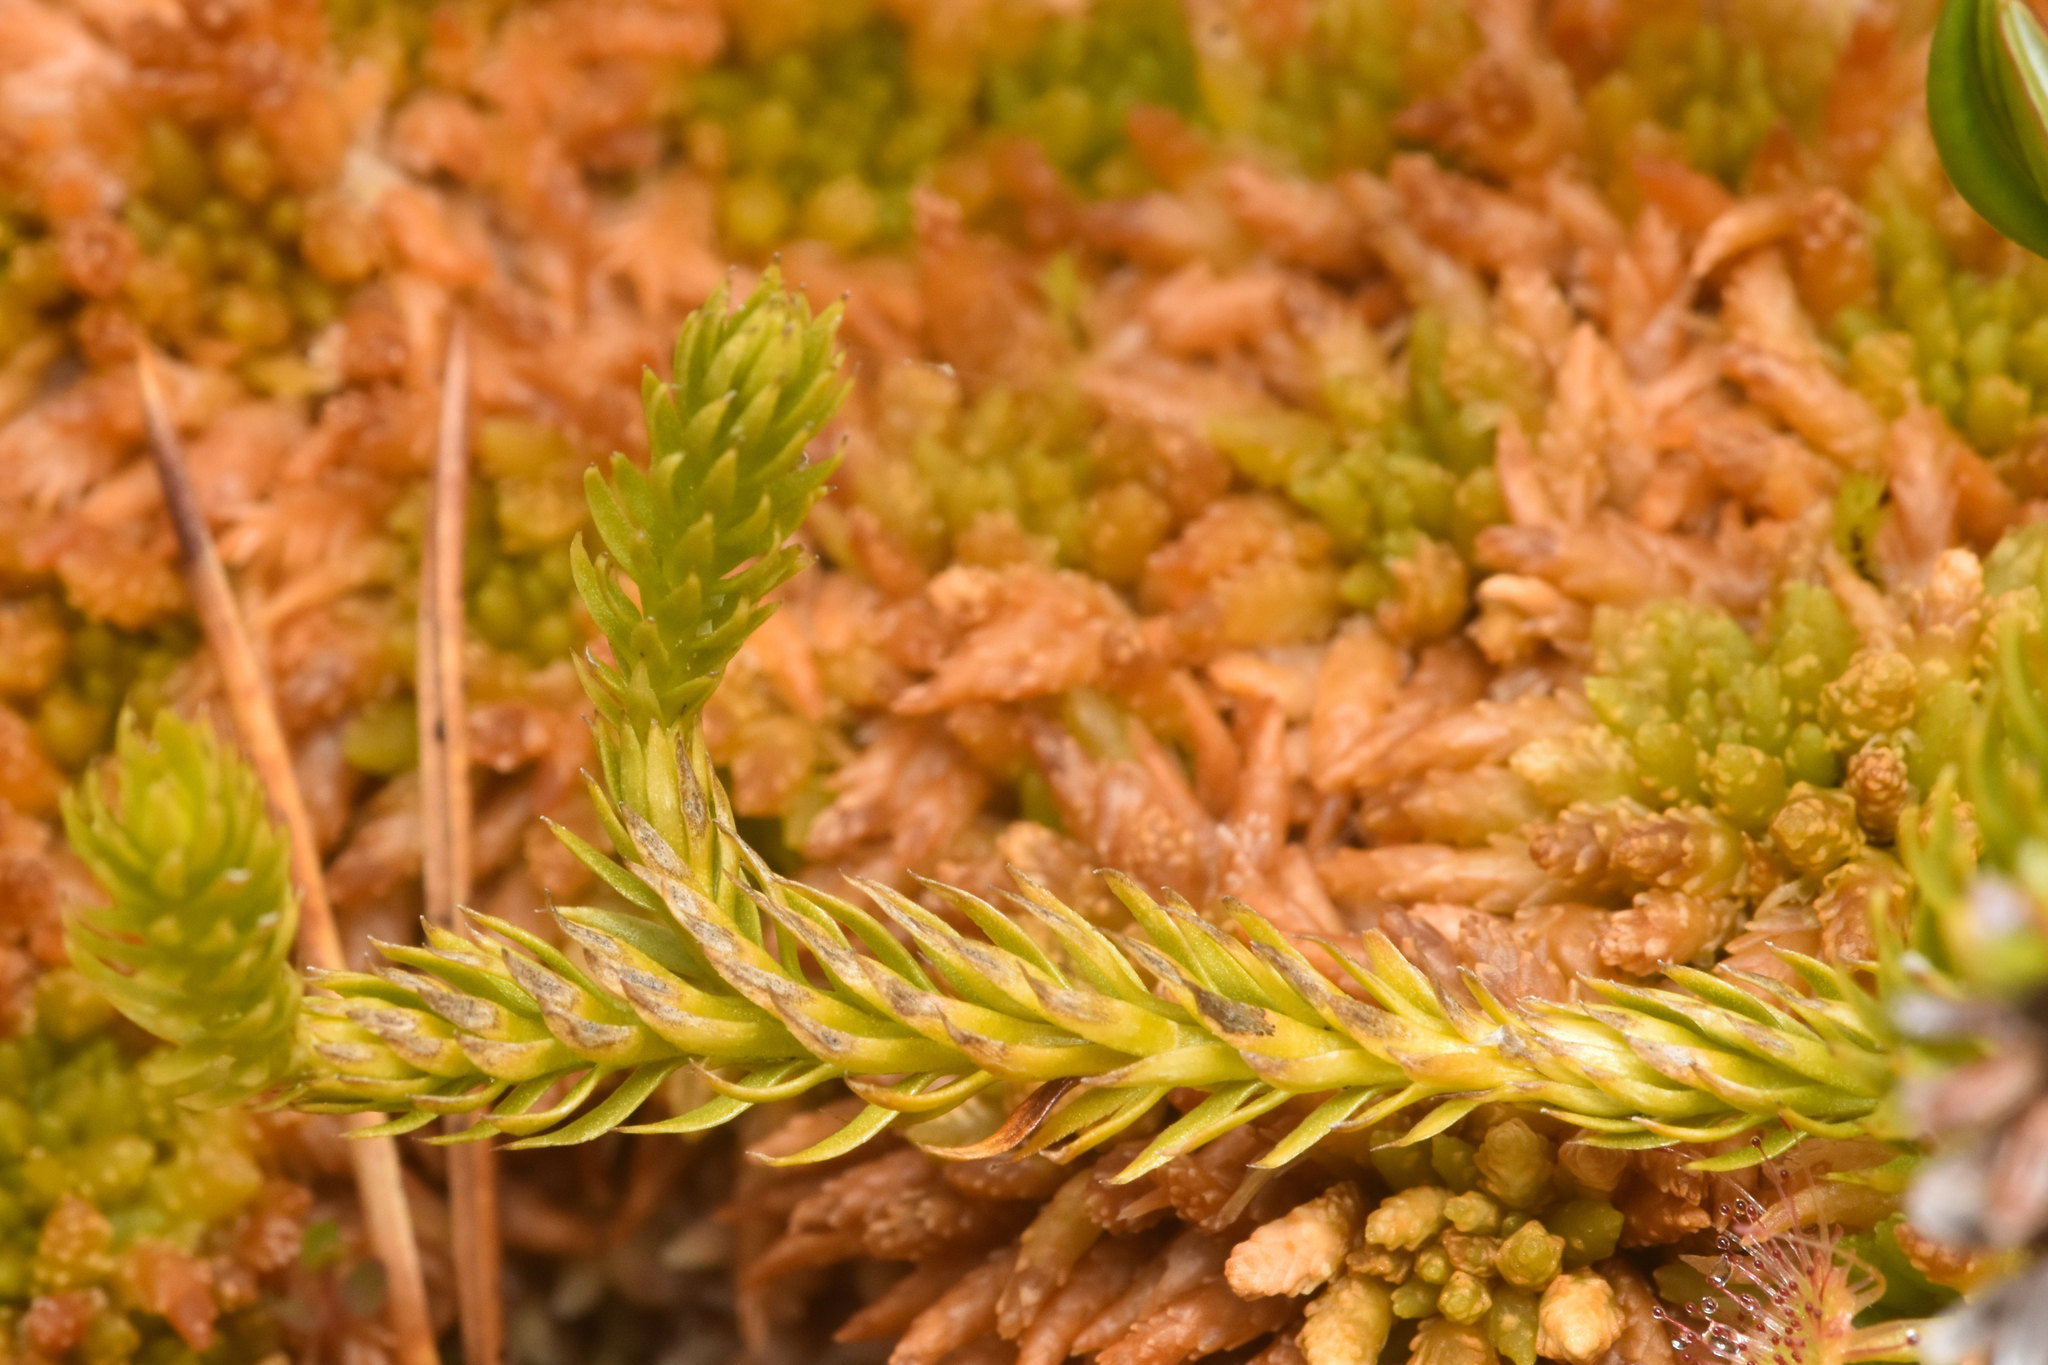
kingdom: Plantae
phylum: Tracheophyta
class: Lycopodiopsida
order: Lycopodiales
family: Lycopodiaceae
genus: Spinulum
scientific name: Spinulum annotinum
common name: Interrupted club-moss
